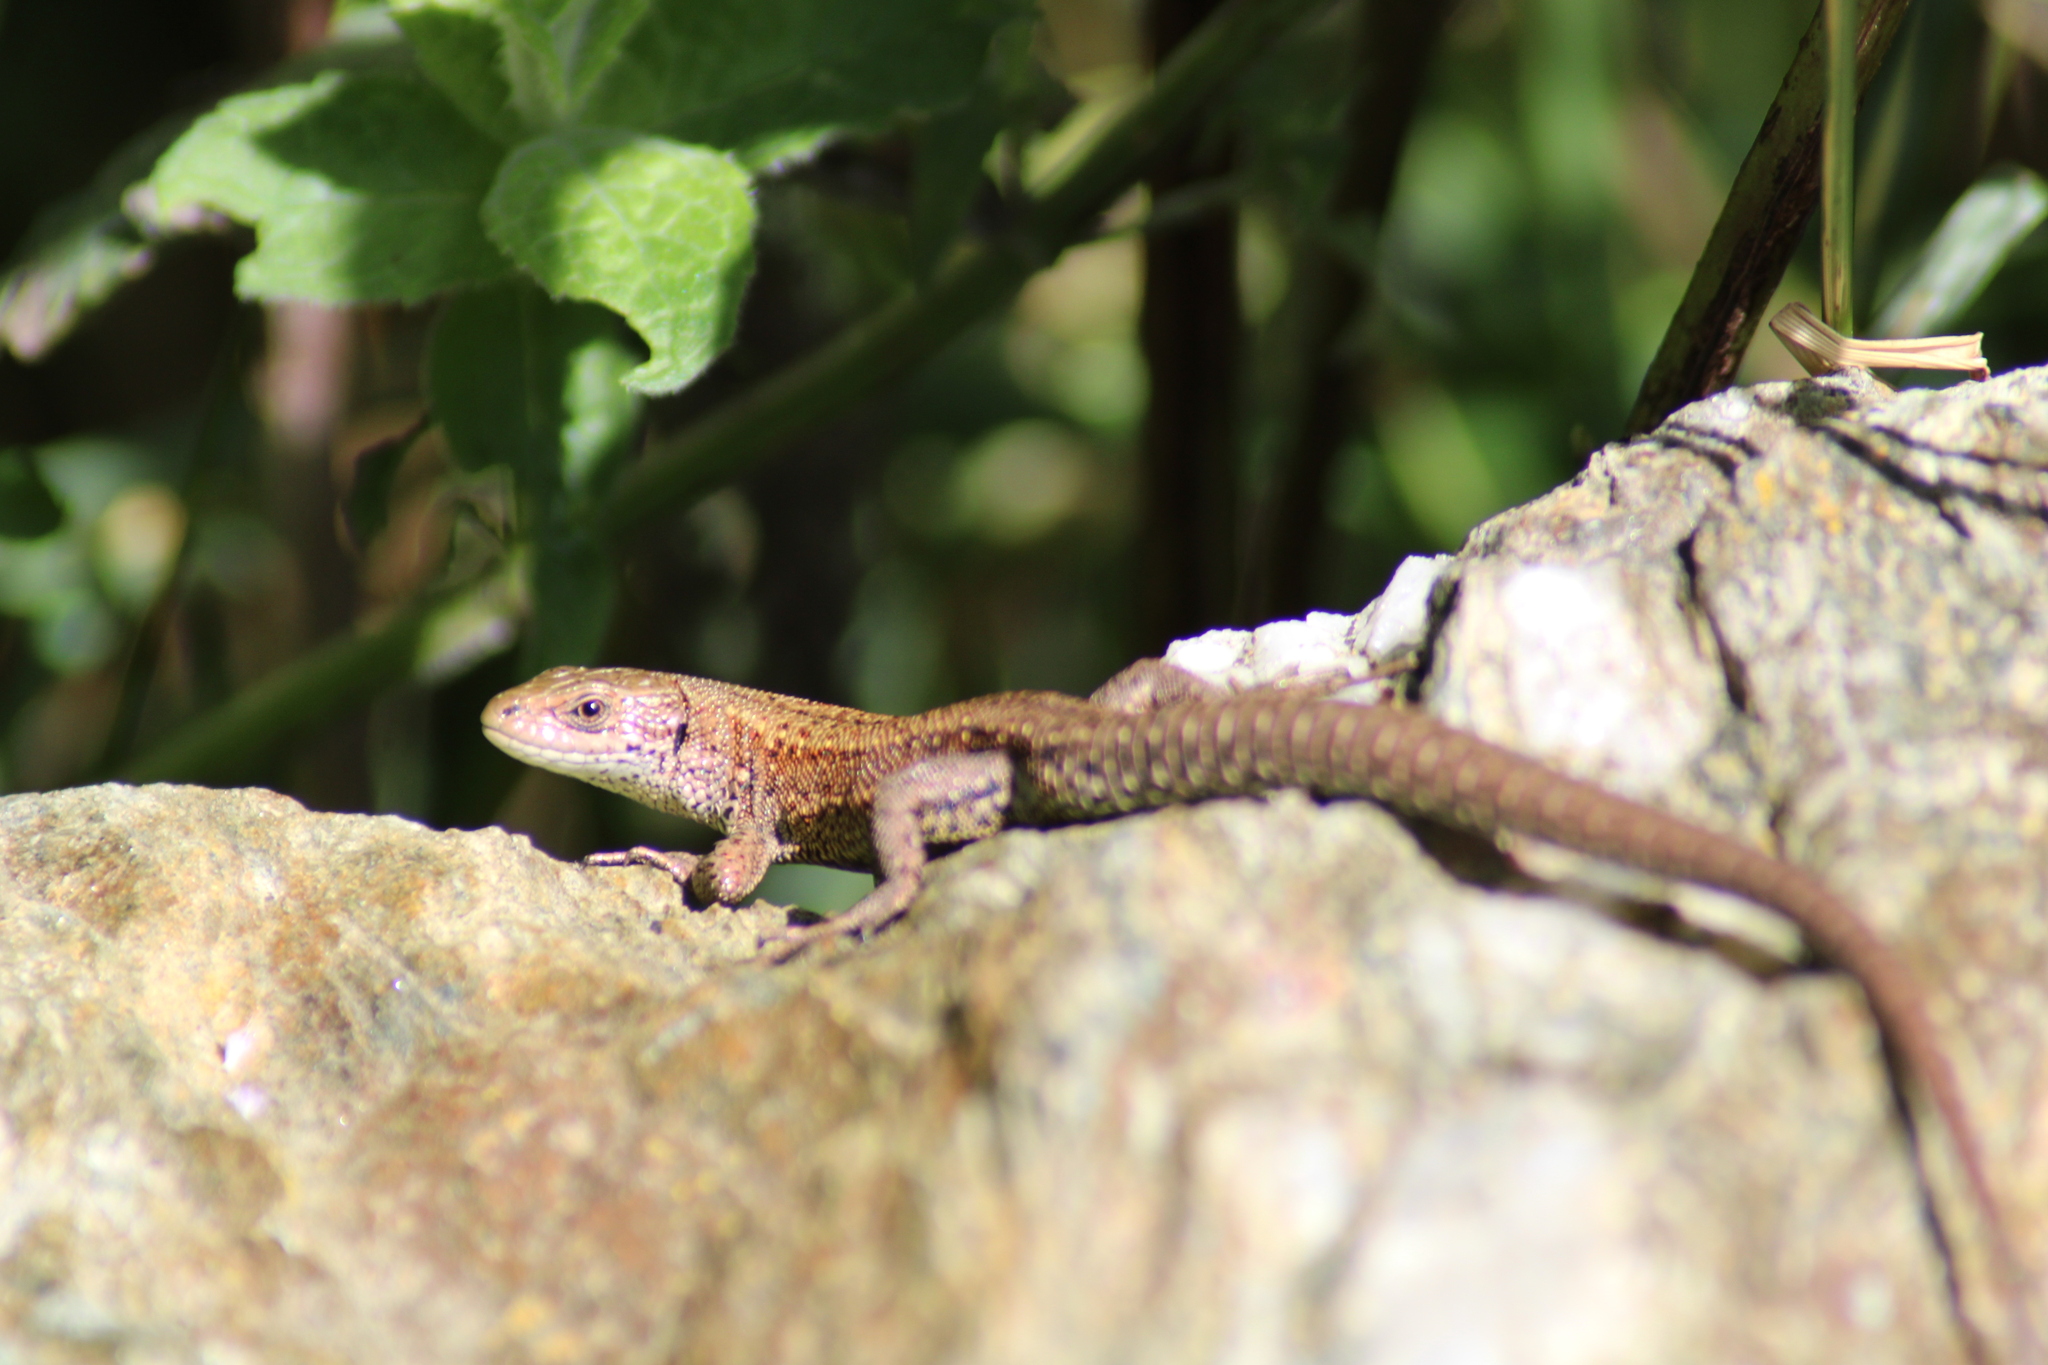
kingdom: Animalia
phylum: Chordata
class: Squamata
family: Lacertidae
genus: Zootoca
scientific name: Zootoca vivipara
